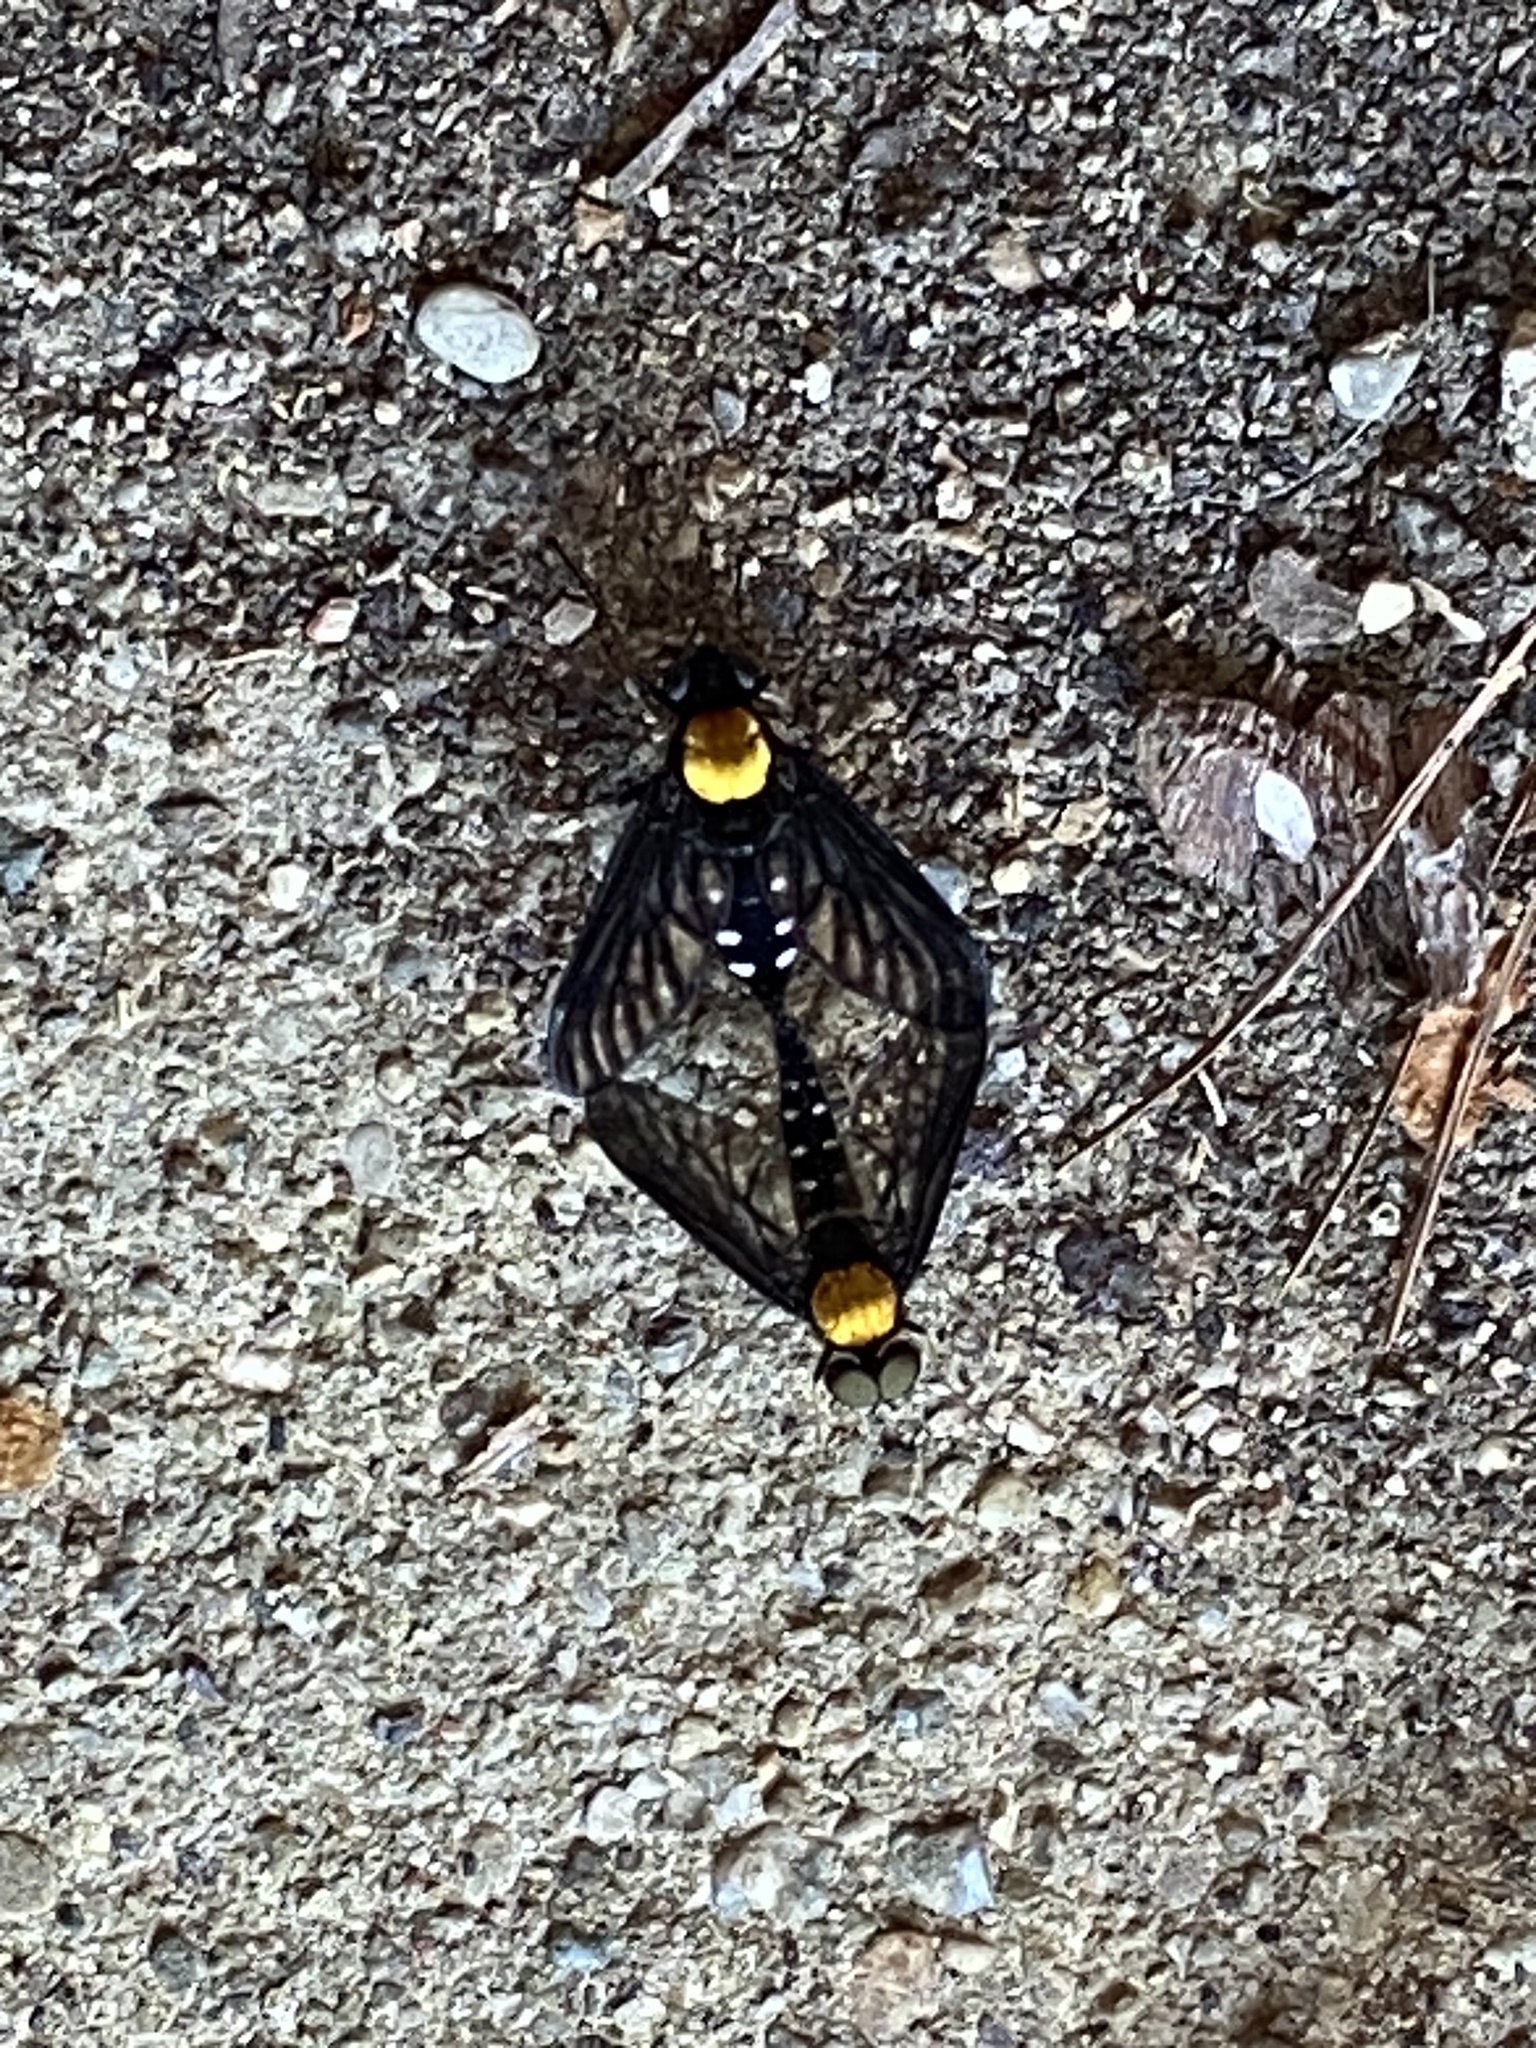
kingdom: Animalia
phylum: Arthropoda
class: Insecta
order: Diptera
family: Rhagionidae
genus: Chrysopilus
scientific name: Chrysopilus thoracicus
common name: Golden-backed snipe fly
